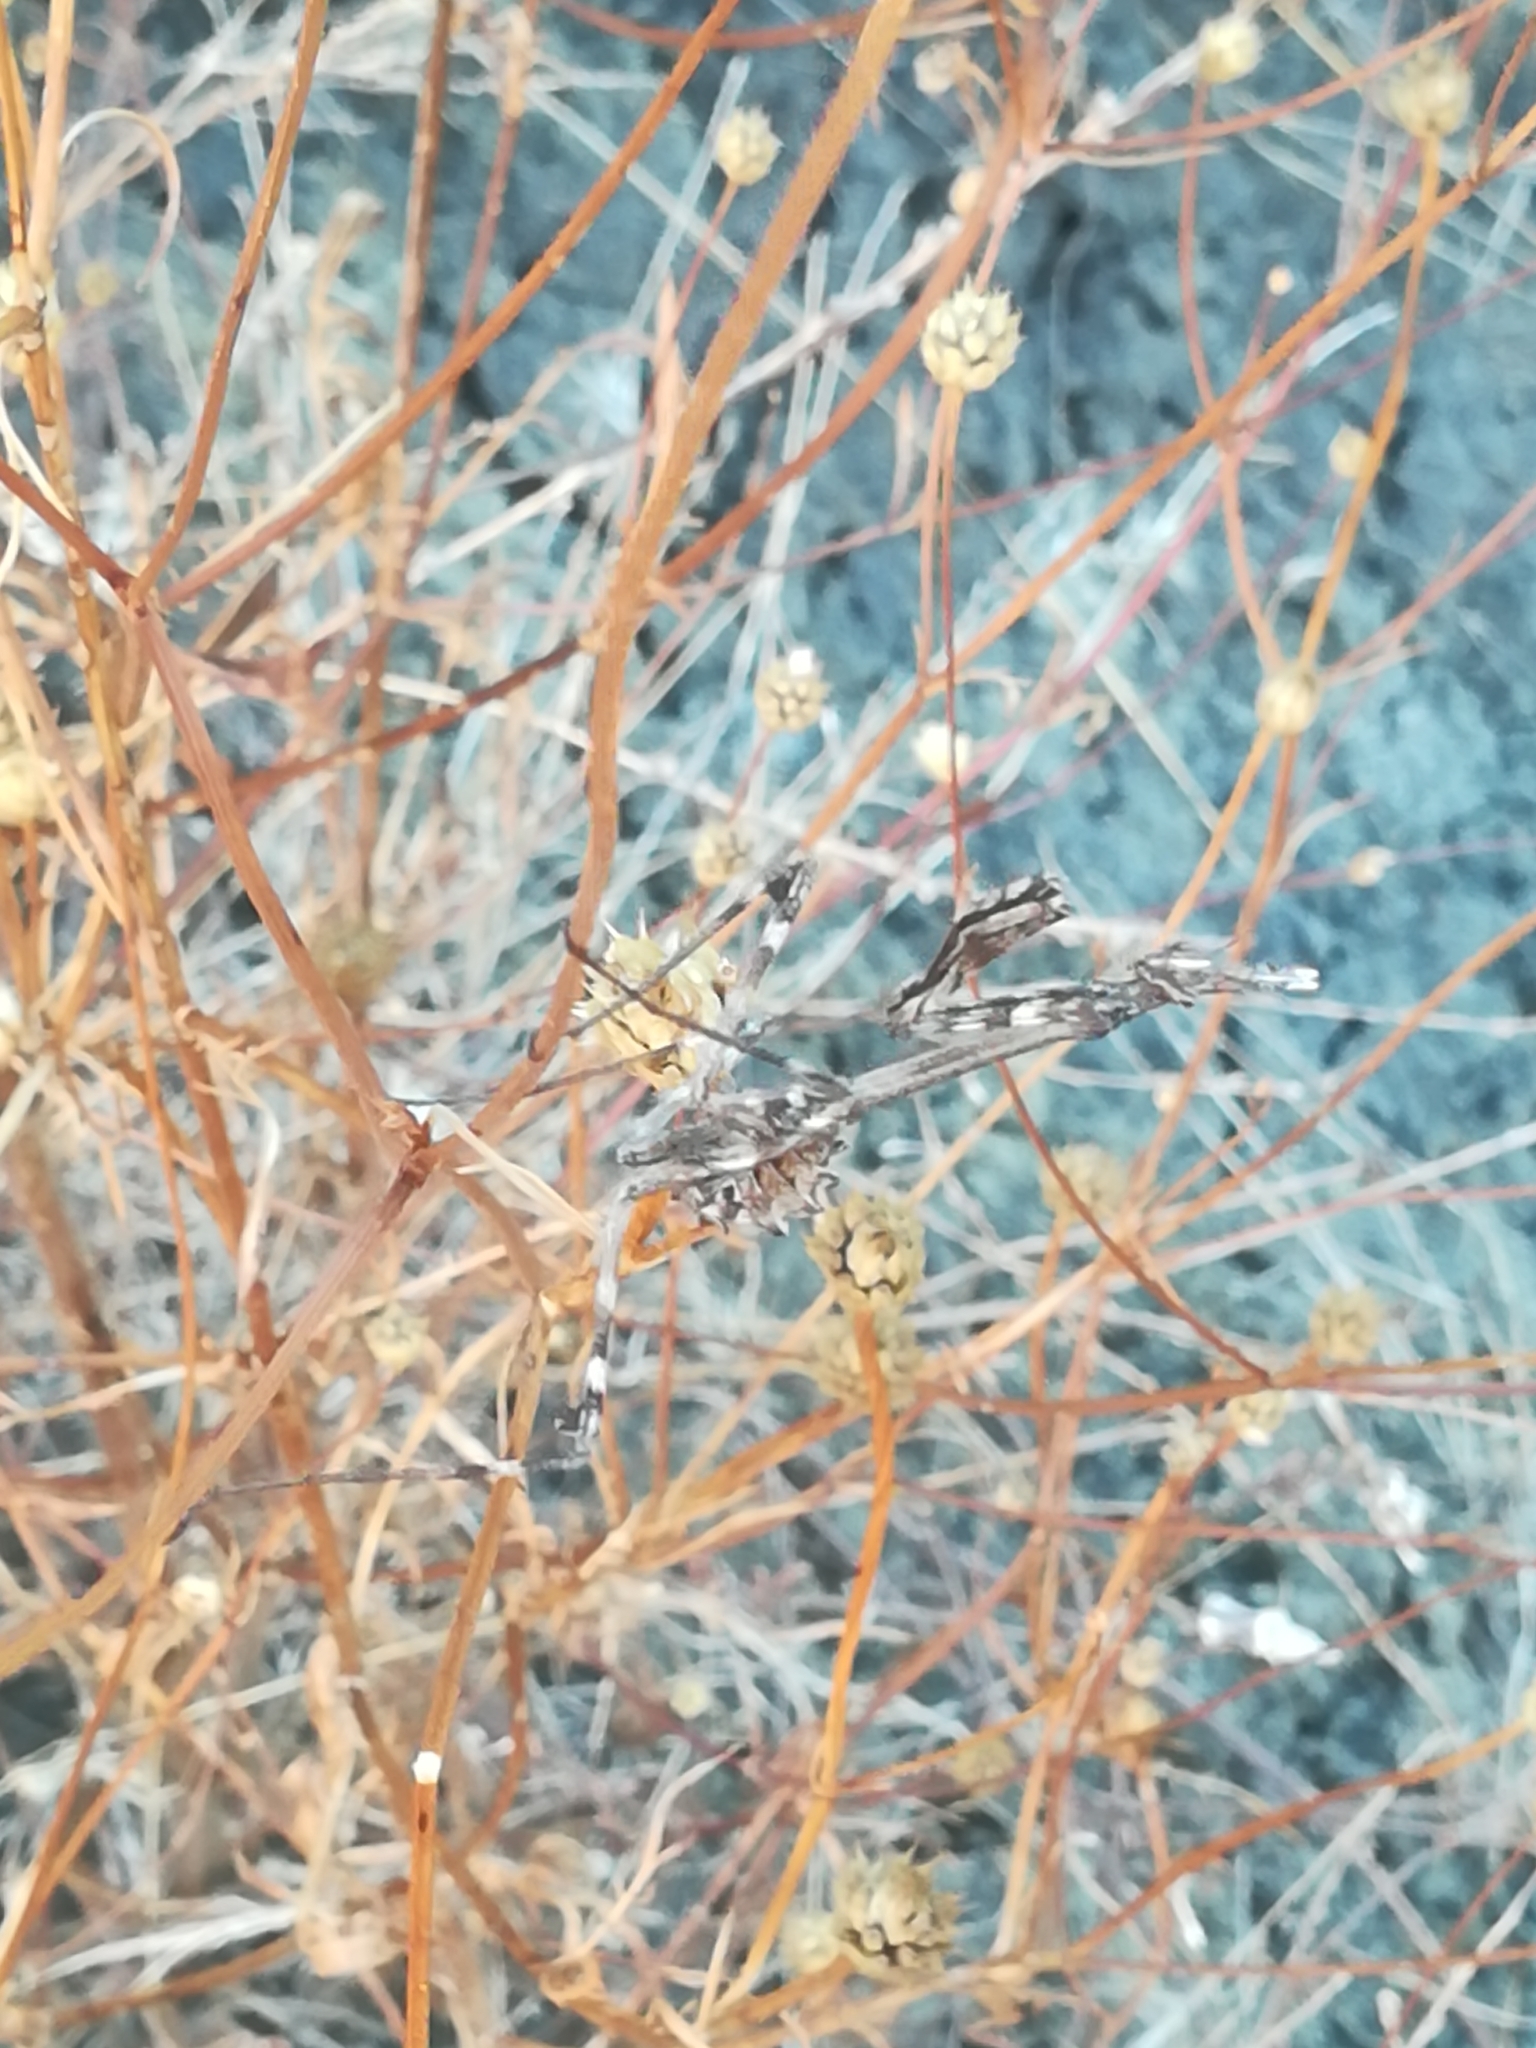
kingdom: Animalia
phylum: Arthropoda
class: Insecta
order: Mantodea
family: Empusidae
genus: Empusa
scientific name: Empusa pennata
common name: Conehead mantis
